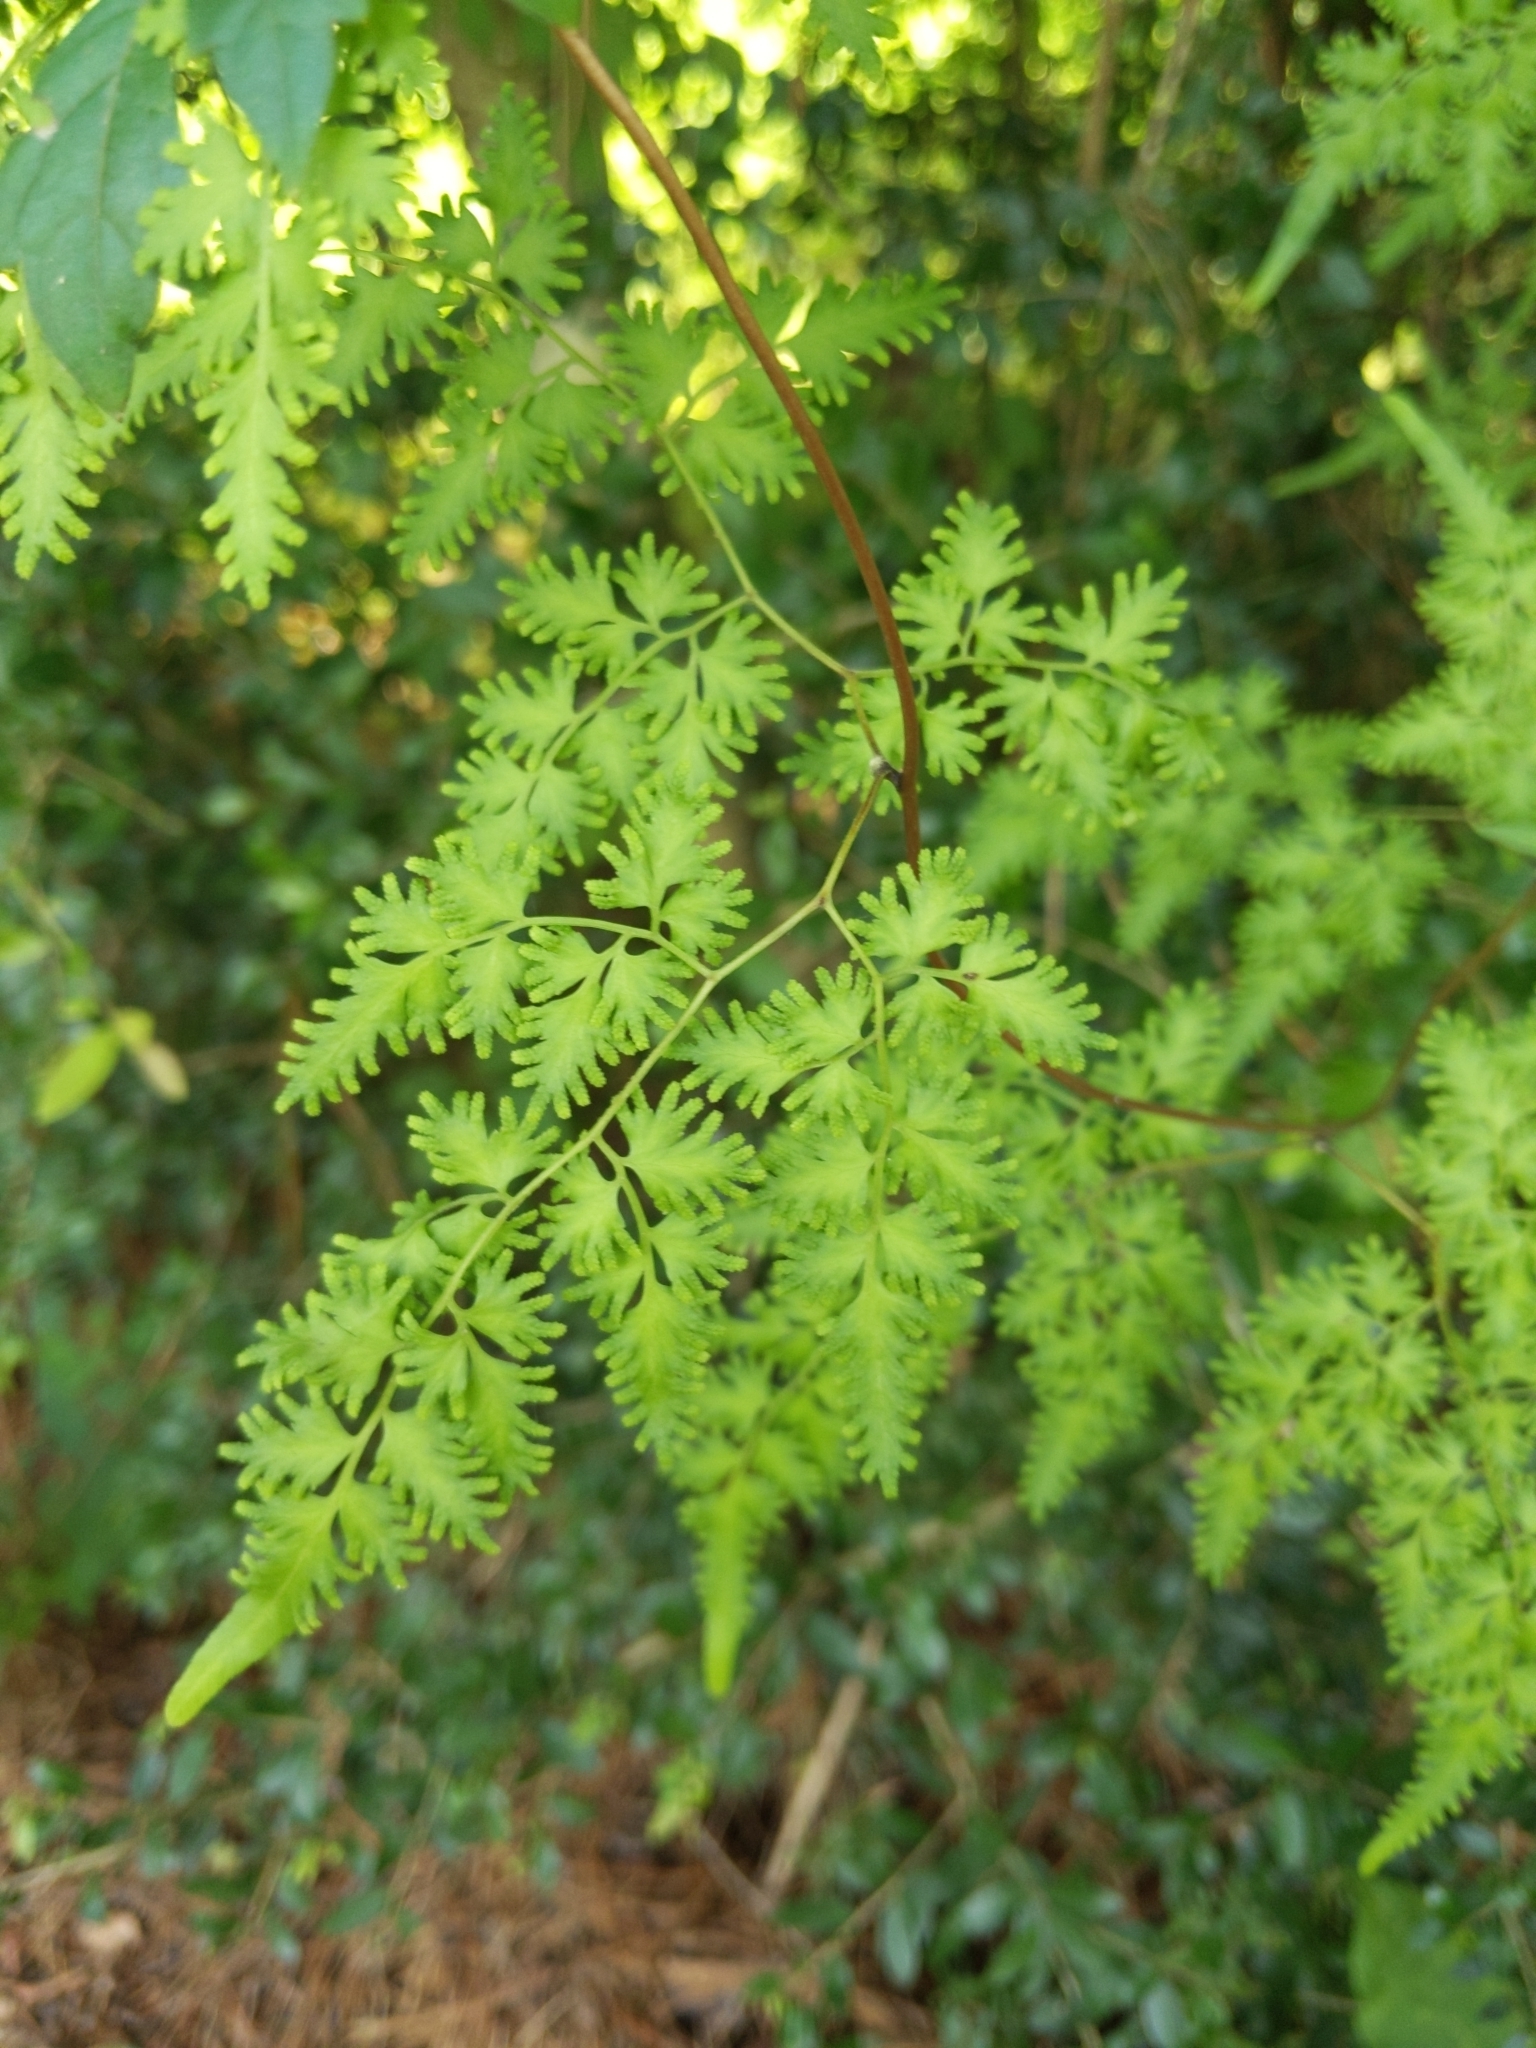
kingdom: Plantae
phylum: Tracheophyta
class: Polypodiopsida
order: Schizaeales
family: Lygodiaceae
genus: Lygodium
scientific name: Lygodium japonicum
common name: Japanese climbing fern
